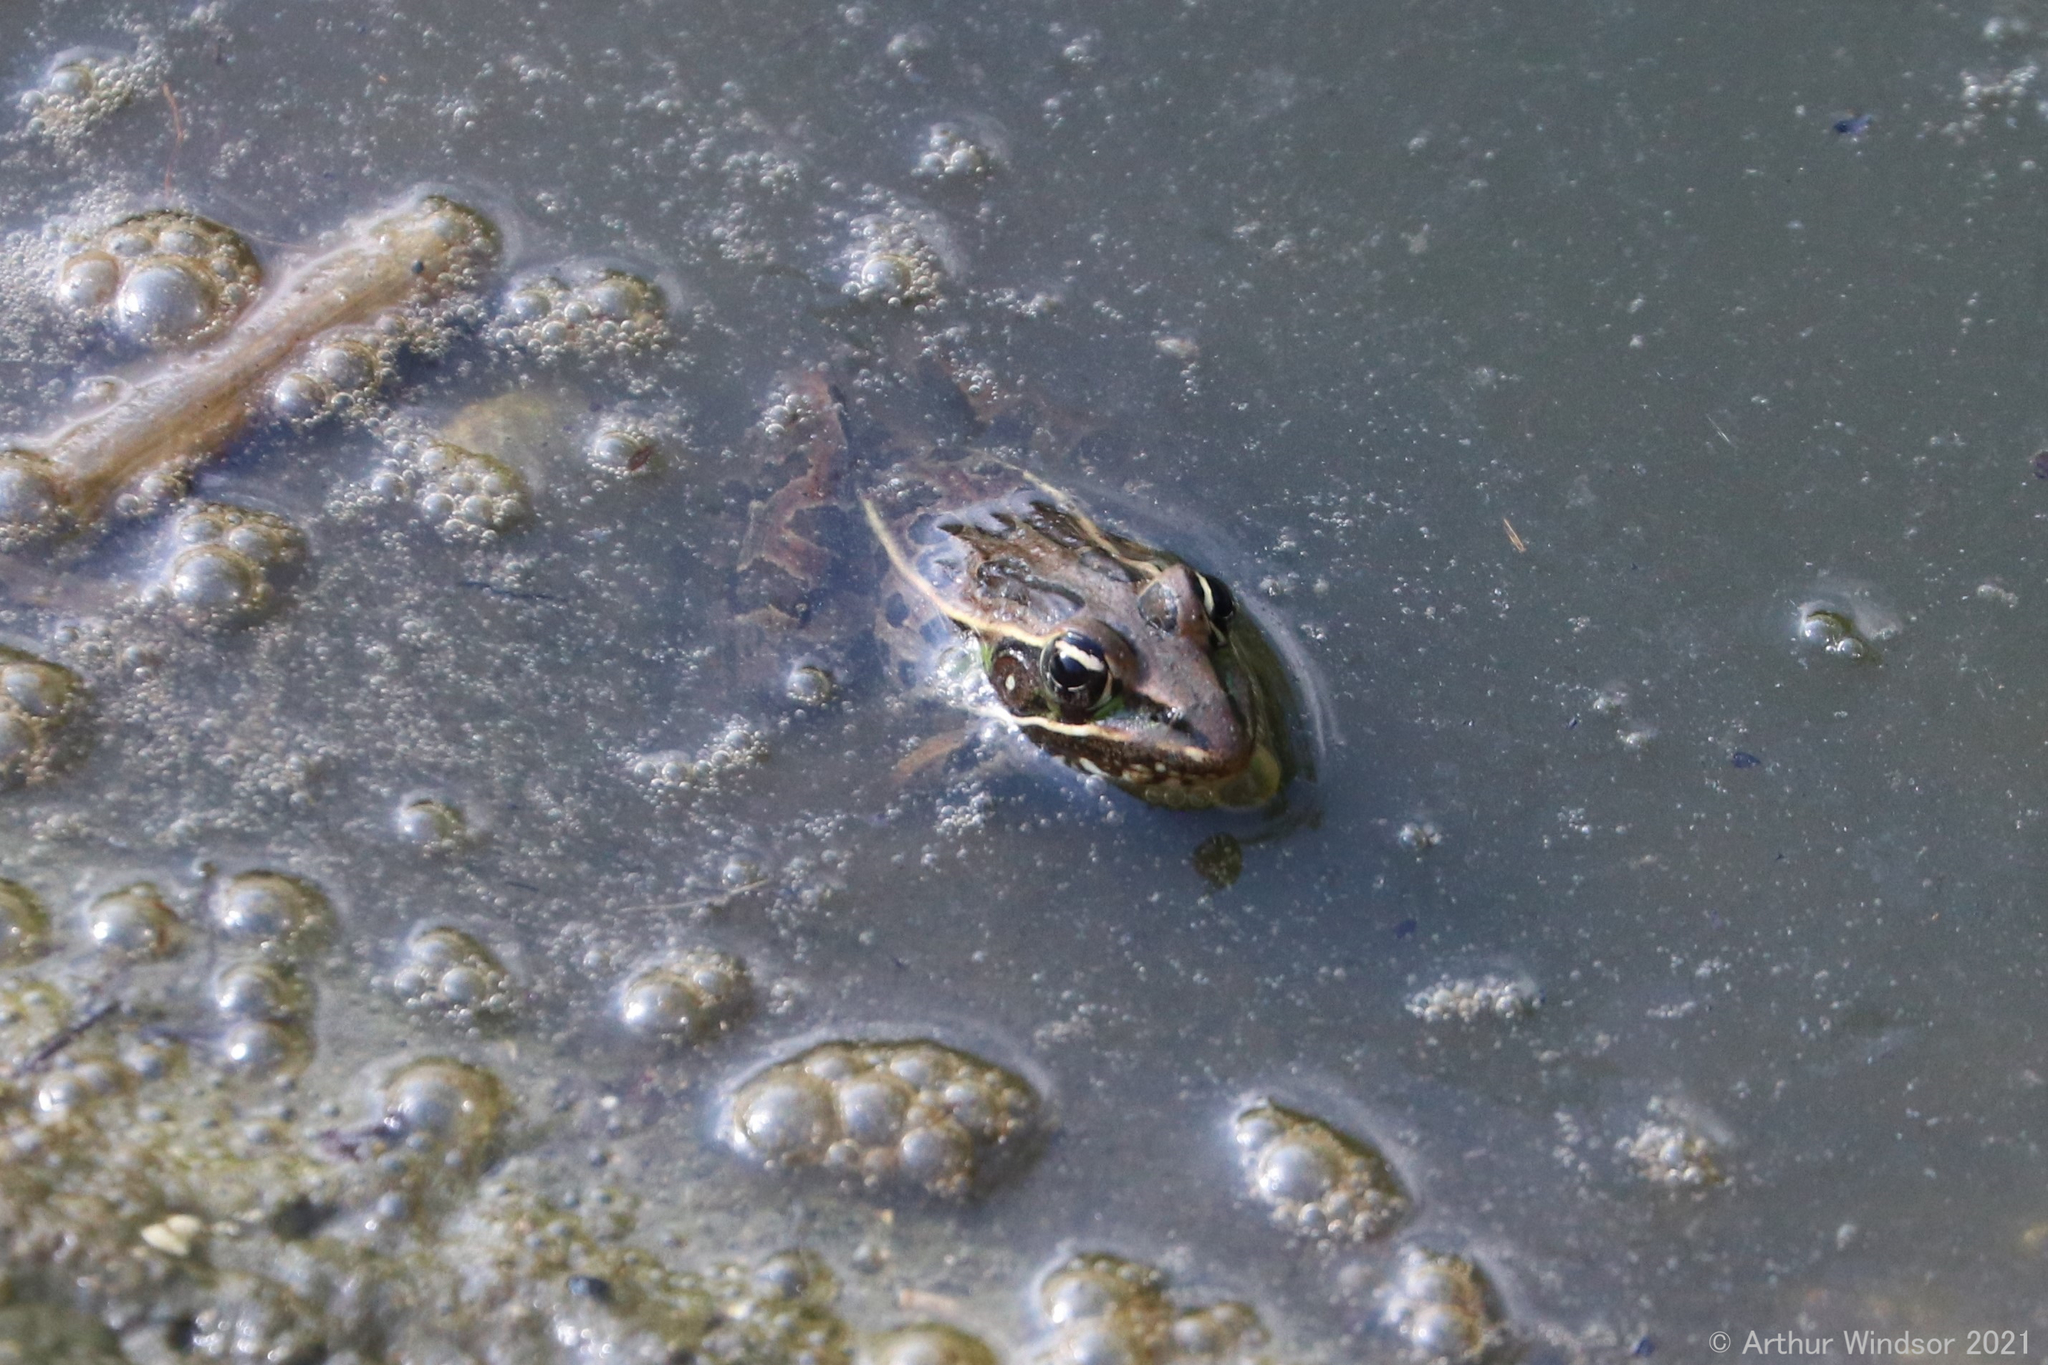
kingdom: Animalia
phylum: Chordata
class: Amphibia
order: Anura
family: Ranidae
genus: Lithobates
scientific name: Lithobates sphenocephalus
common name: Southern leopard frog
